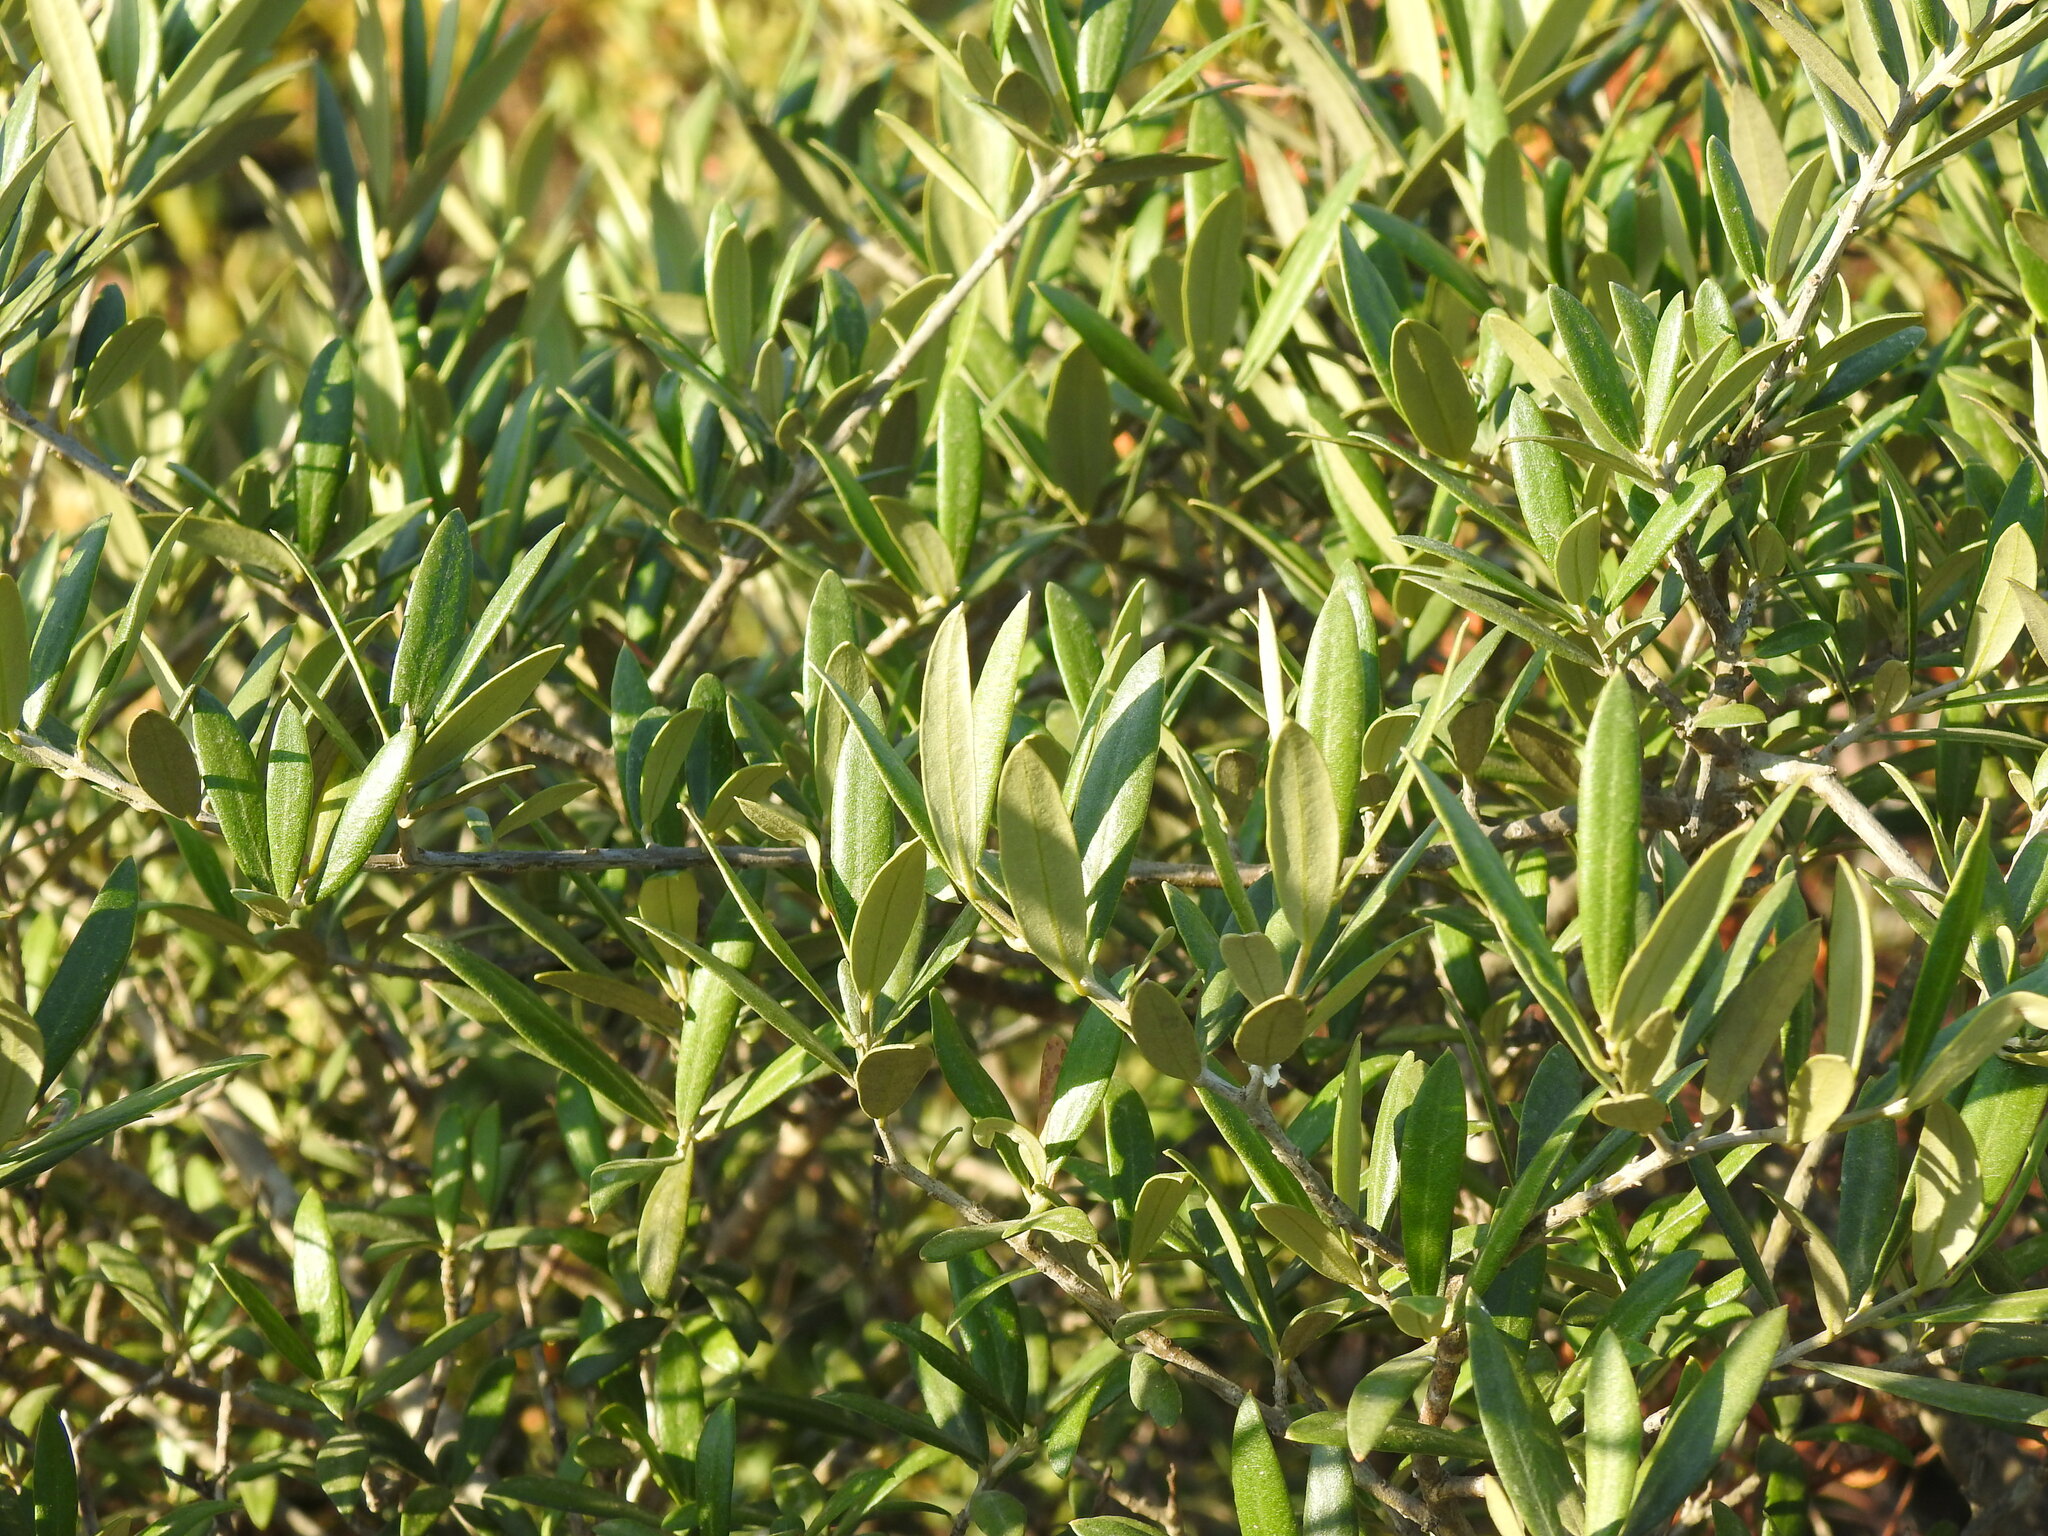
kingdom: Plantae
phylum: Tracheophyta
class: Magnoliopsida
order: Lamiales
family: Oleaceae
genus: Olea
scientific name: Olea europaea
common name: Olive
